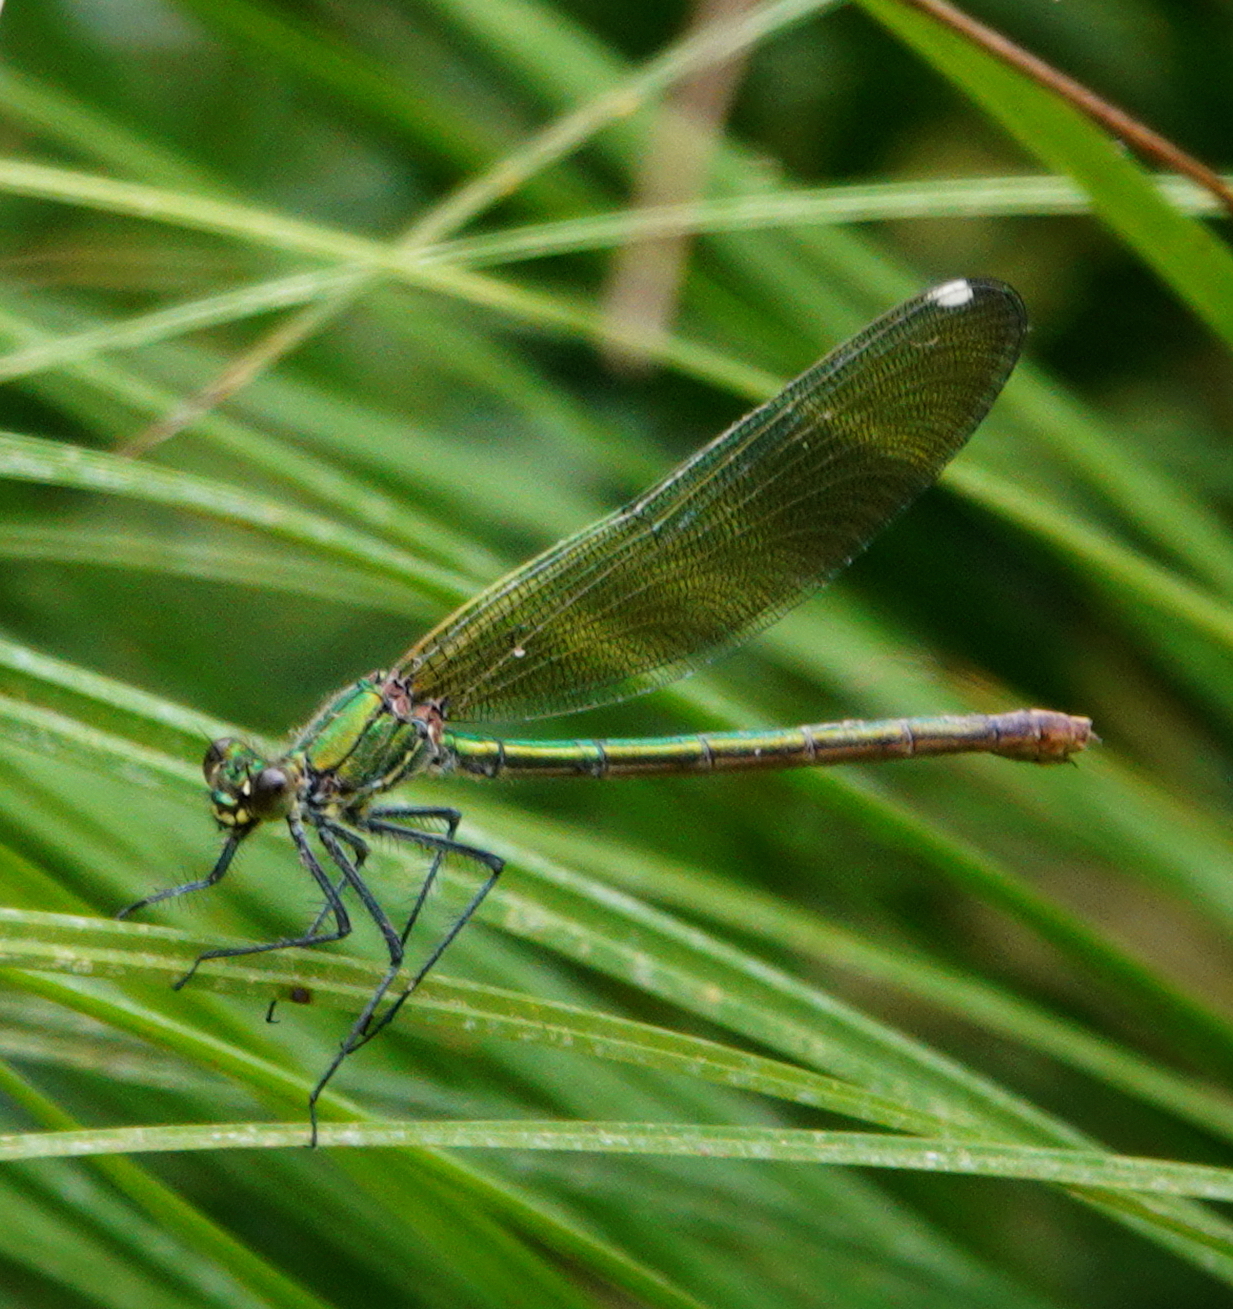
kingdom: Animalia
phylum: Arthropoda
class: Insecta
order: Odonata
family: Calopterygidae
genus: Calopteryx
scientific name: Calopteryx xanthostoma
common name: Western demoiselle
